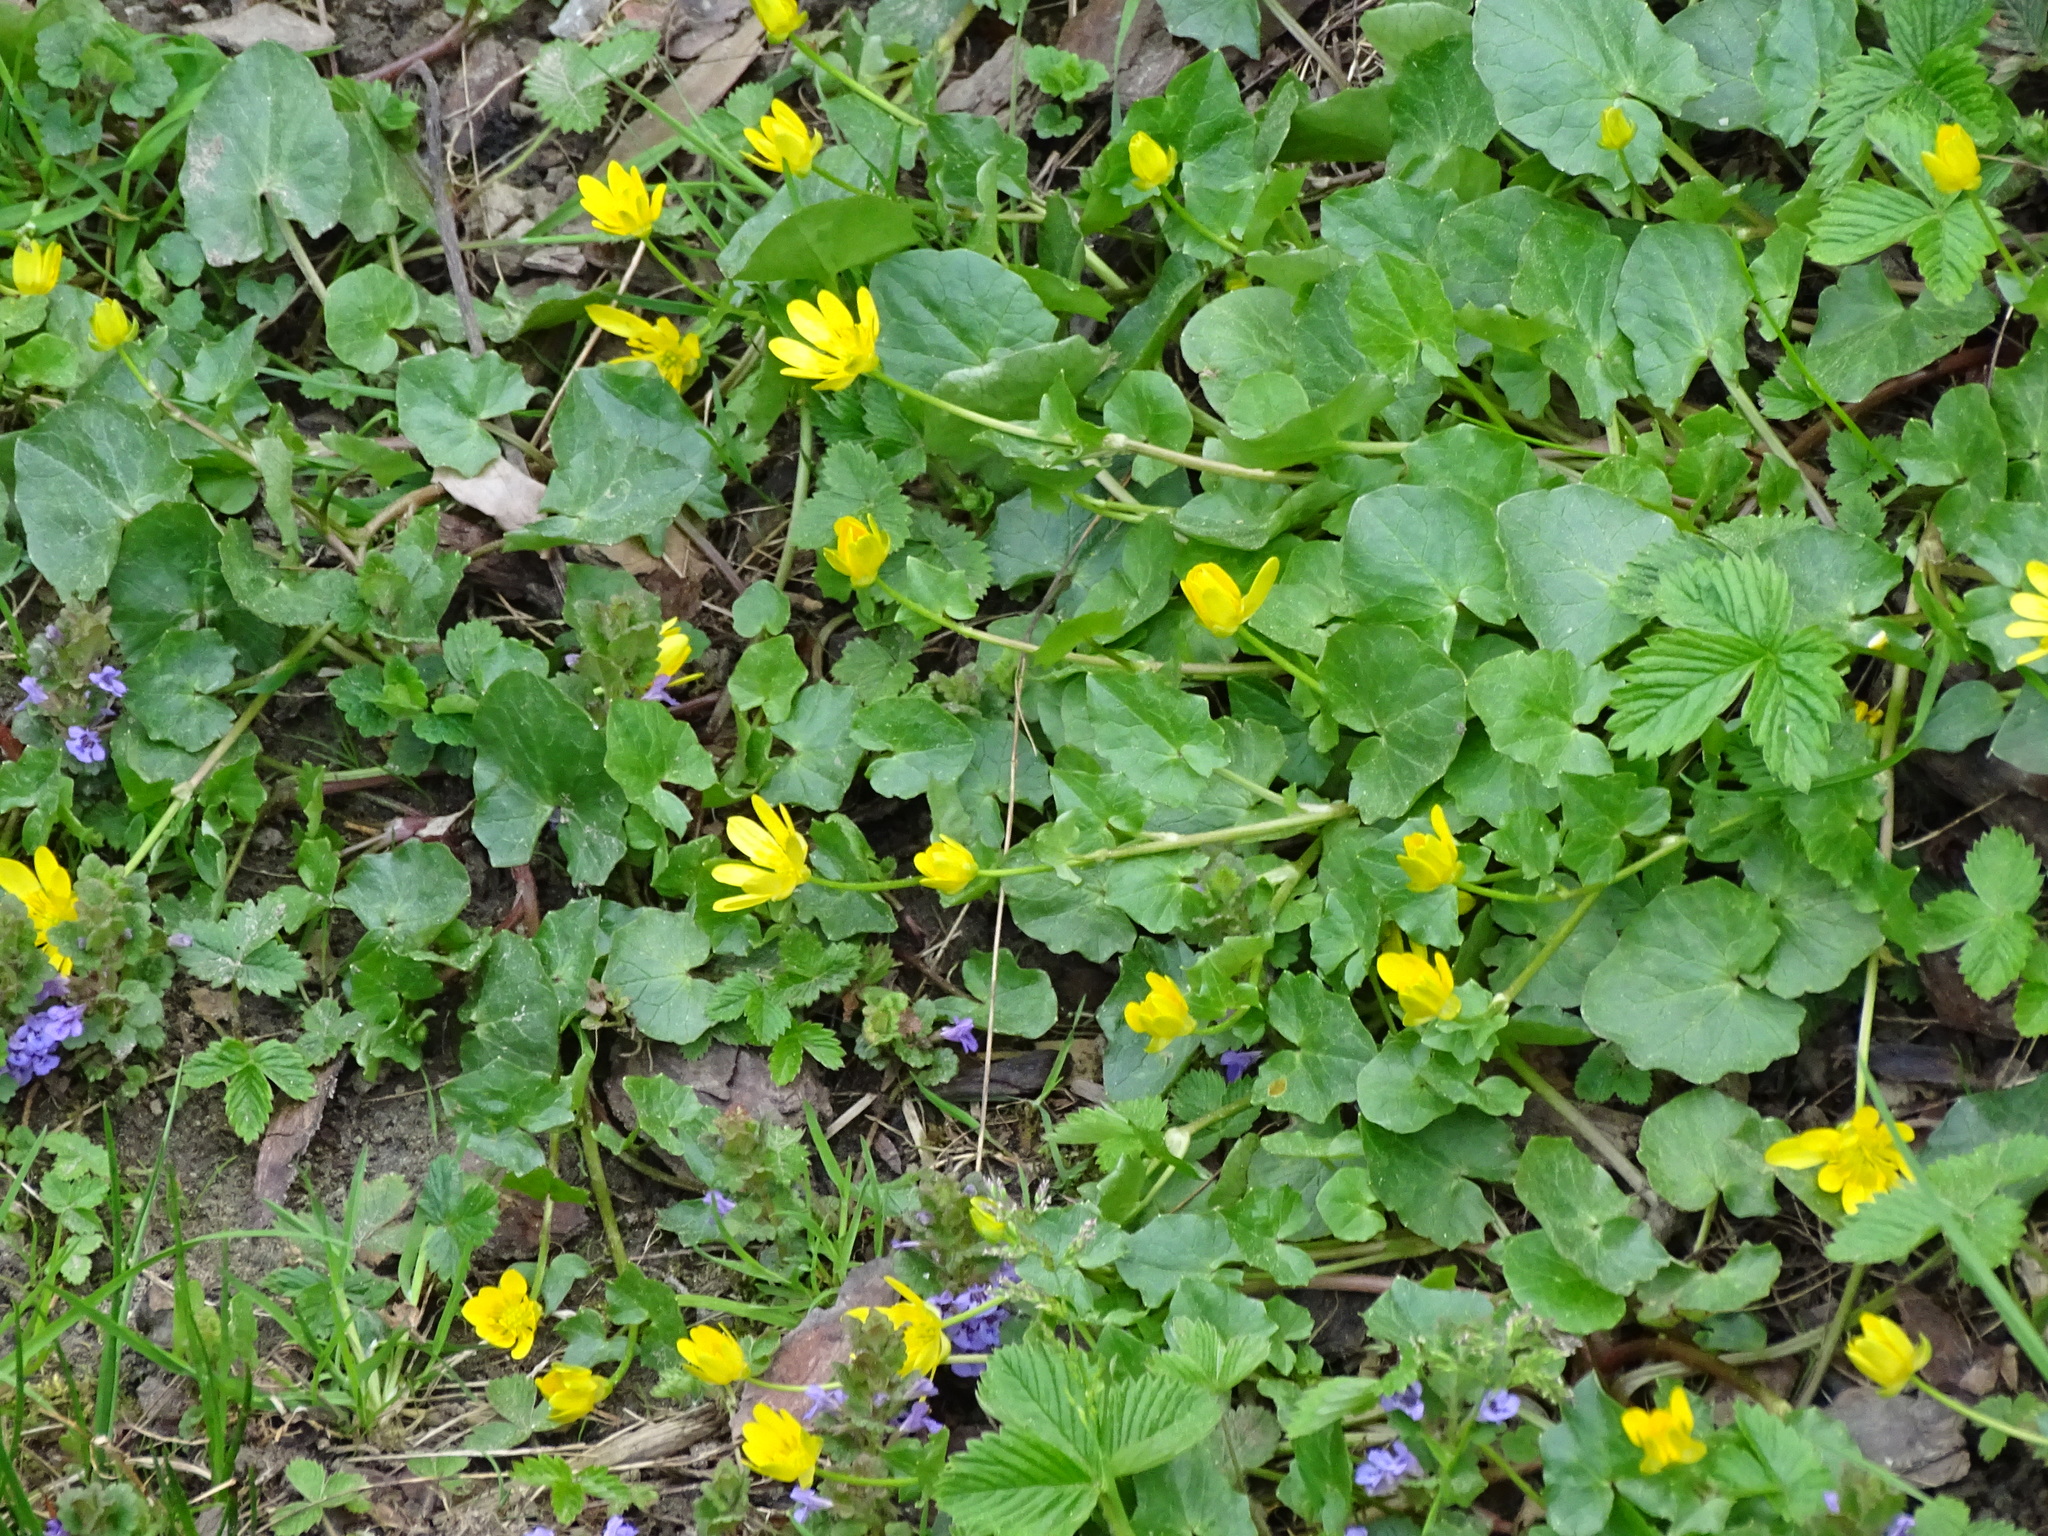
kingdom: Plantae
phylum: Tracheophyta
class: Magnoliopsida
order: Ranunculales
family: Ranunculaceae
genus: Ficaria
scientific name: Ficaria verna
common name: Lesser celandine
